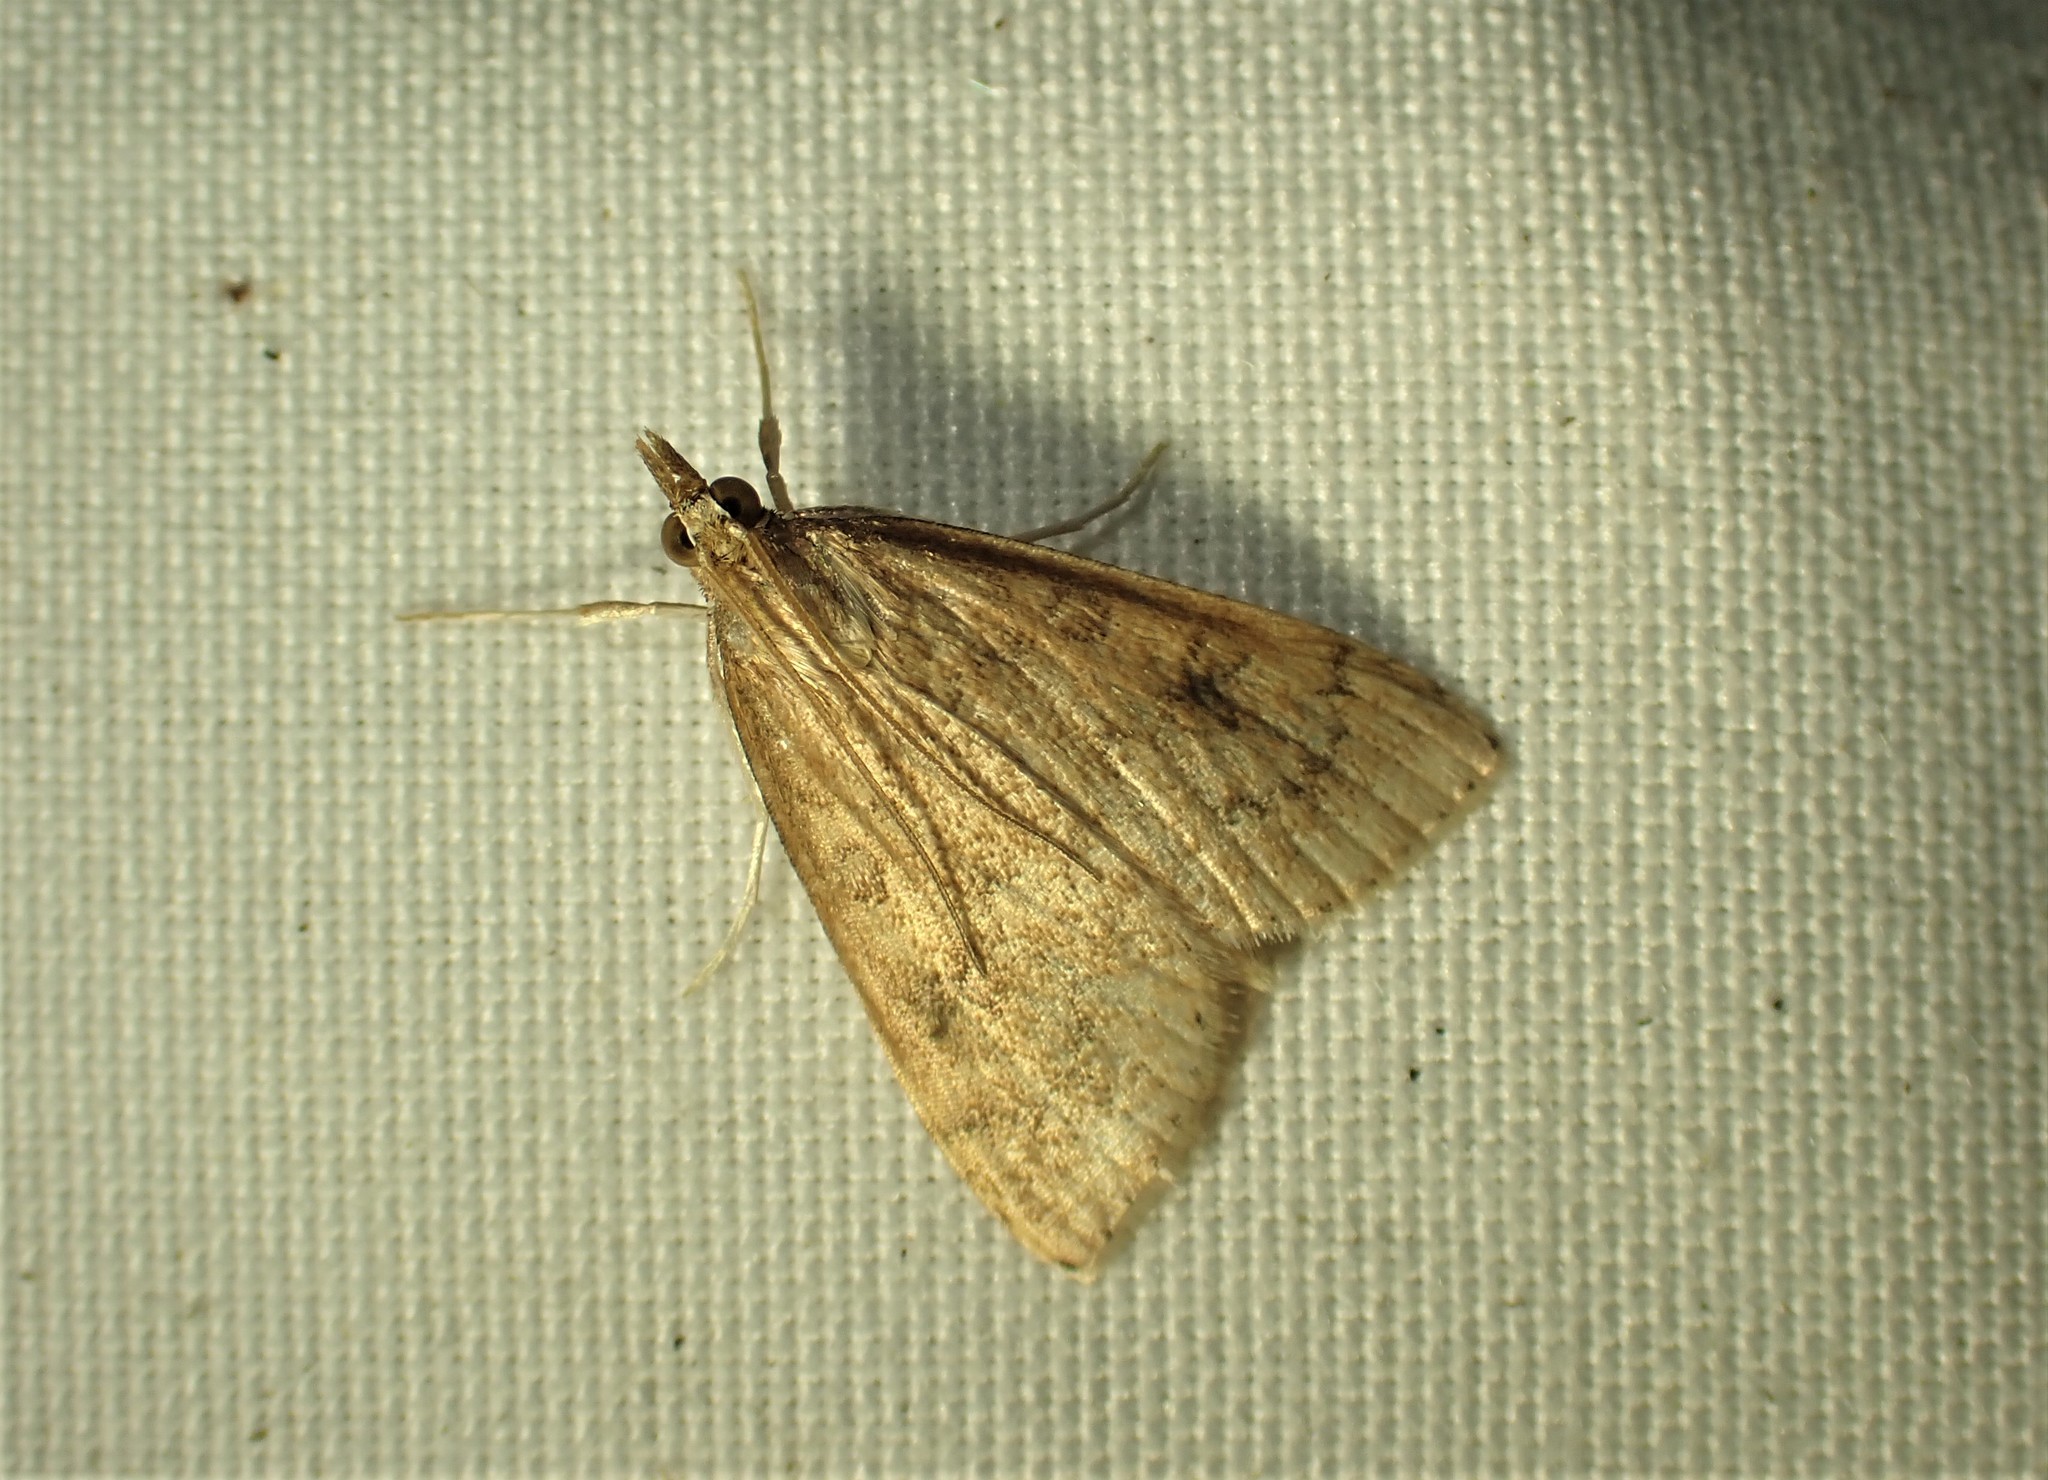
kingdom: Animalia
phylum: Arthropoda
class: Insecta
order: Lepidoptera
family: Crambidae
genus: Udea
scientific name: Udea rubigalis
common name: Celery leaftier moth
